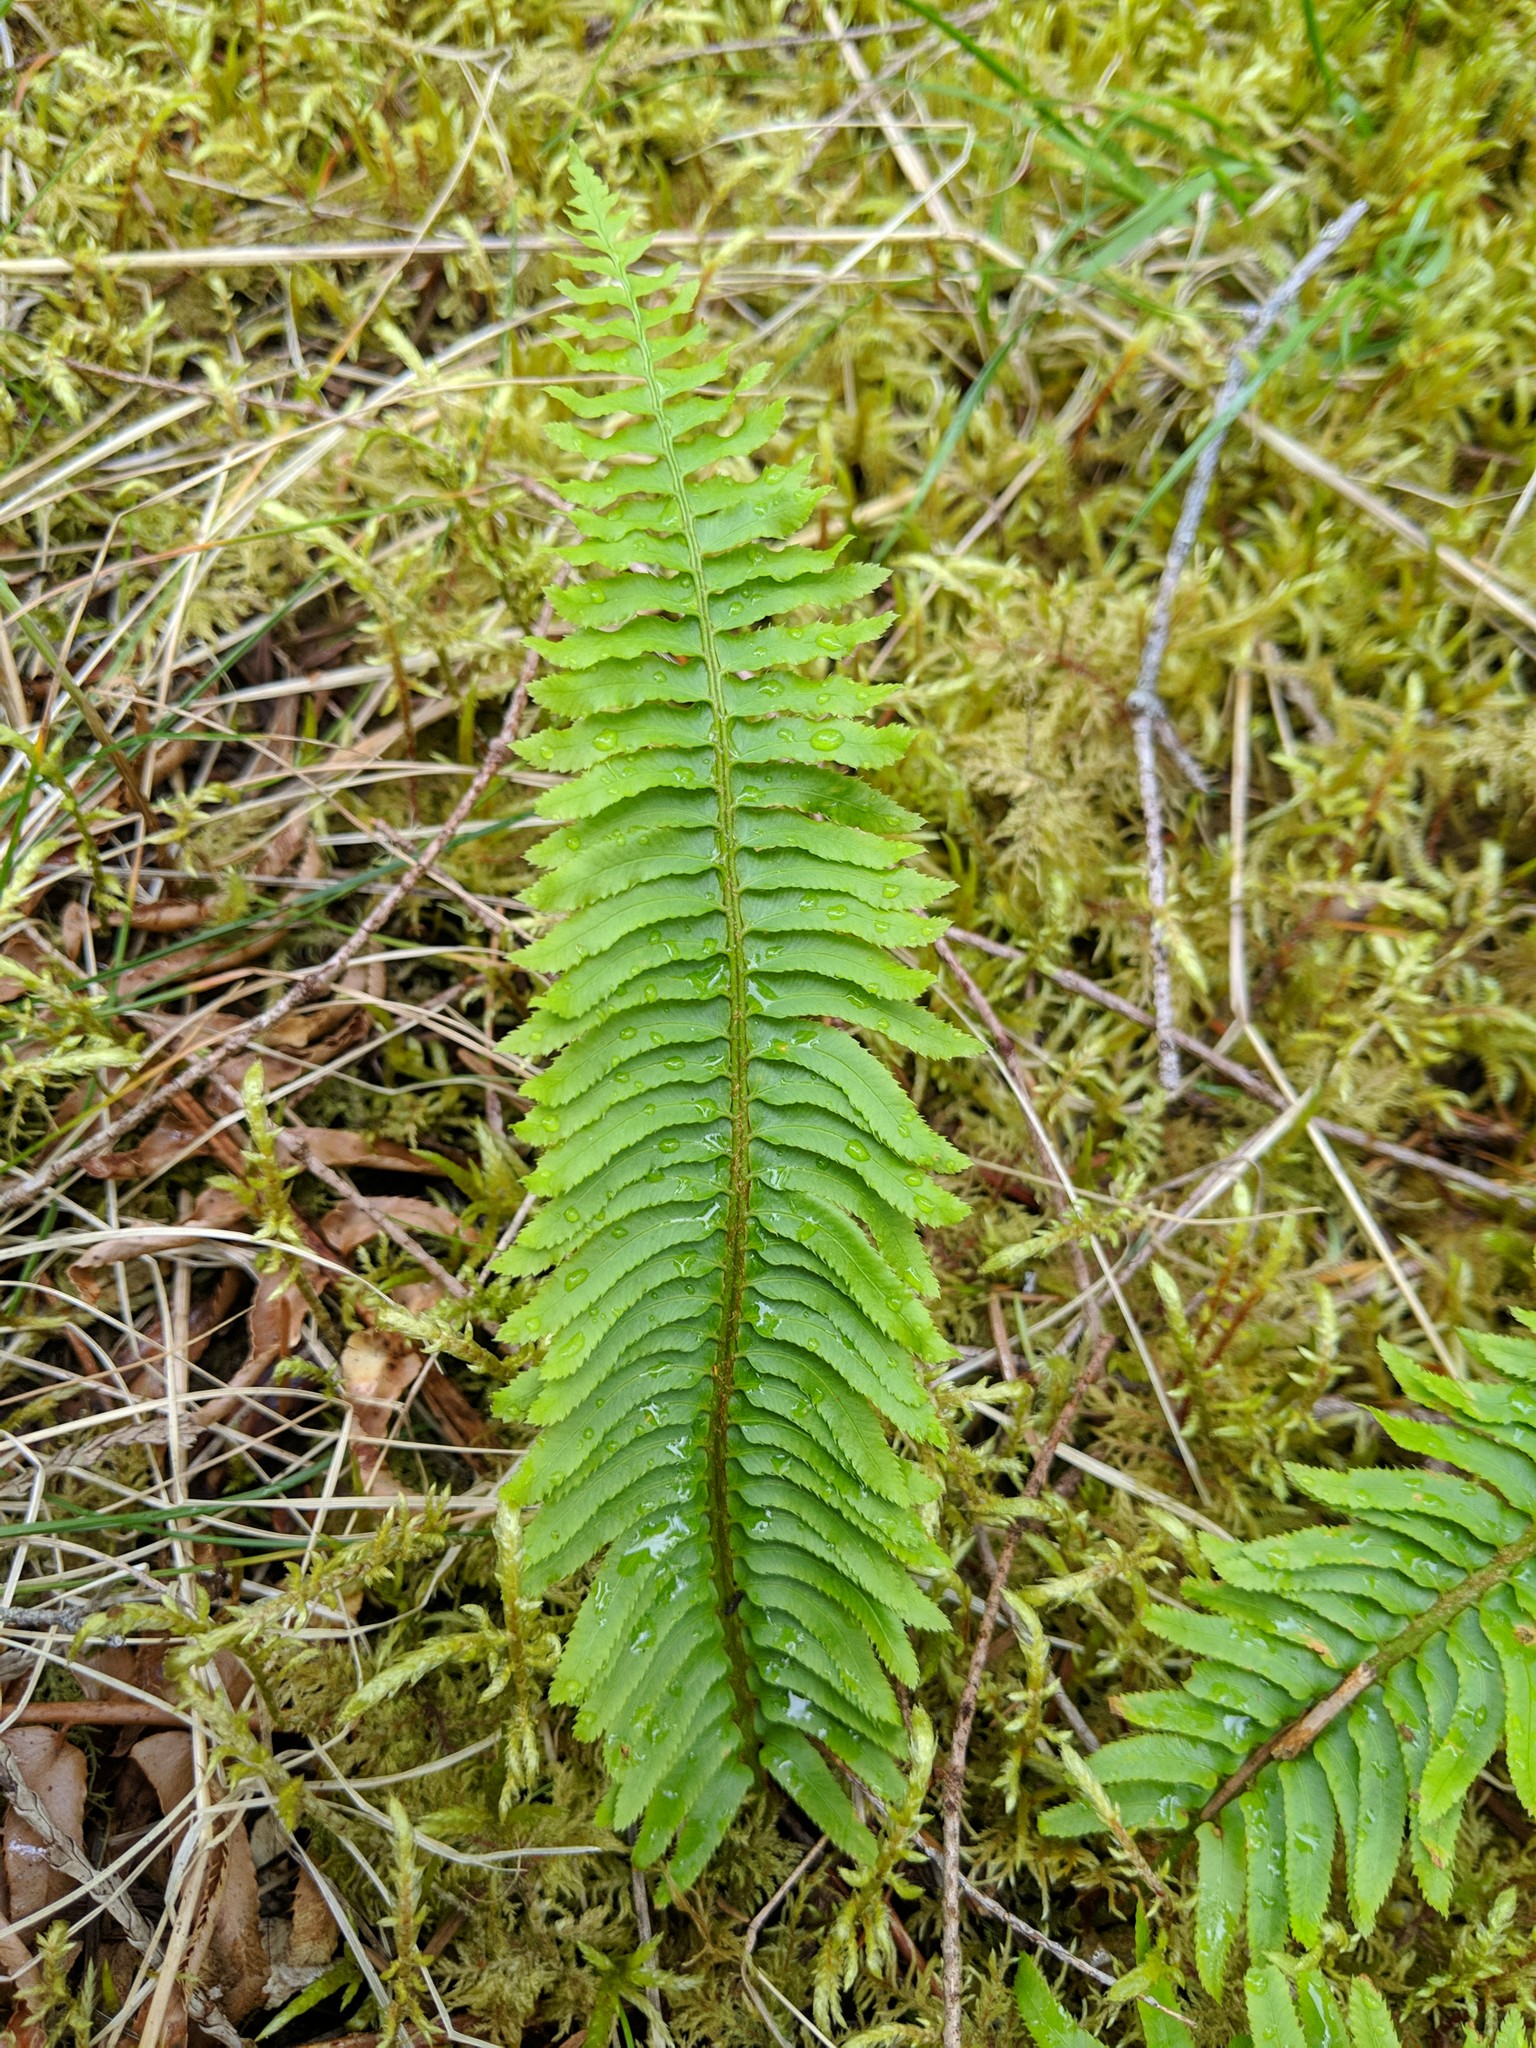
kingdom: Plantae
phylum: Tracheophyta
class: Polypodiopsida
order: Polypodiales
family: Dryopteridaceae
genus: Polystichum
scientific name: Polystichum munitum
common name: Western sword-fern
